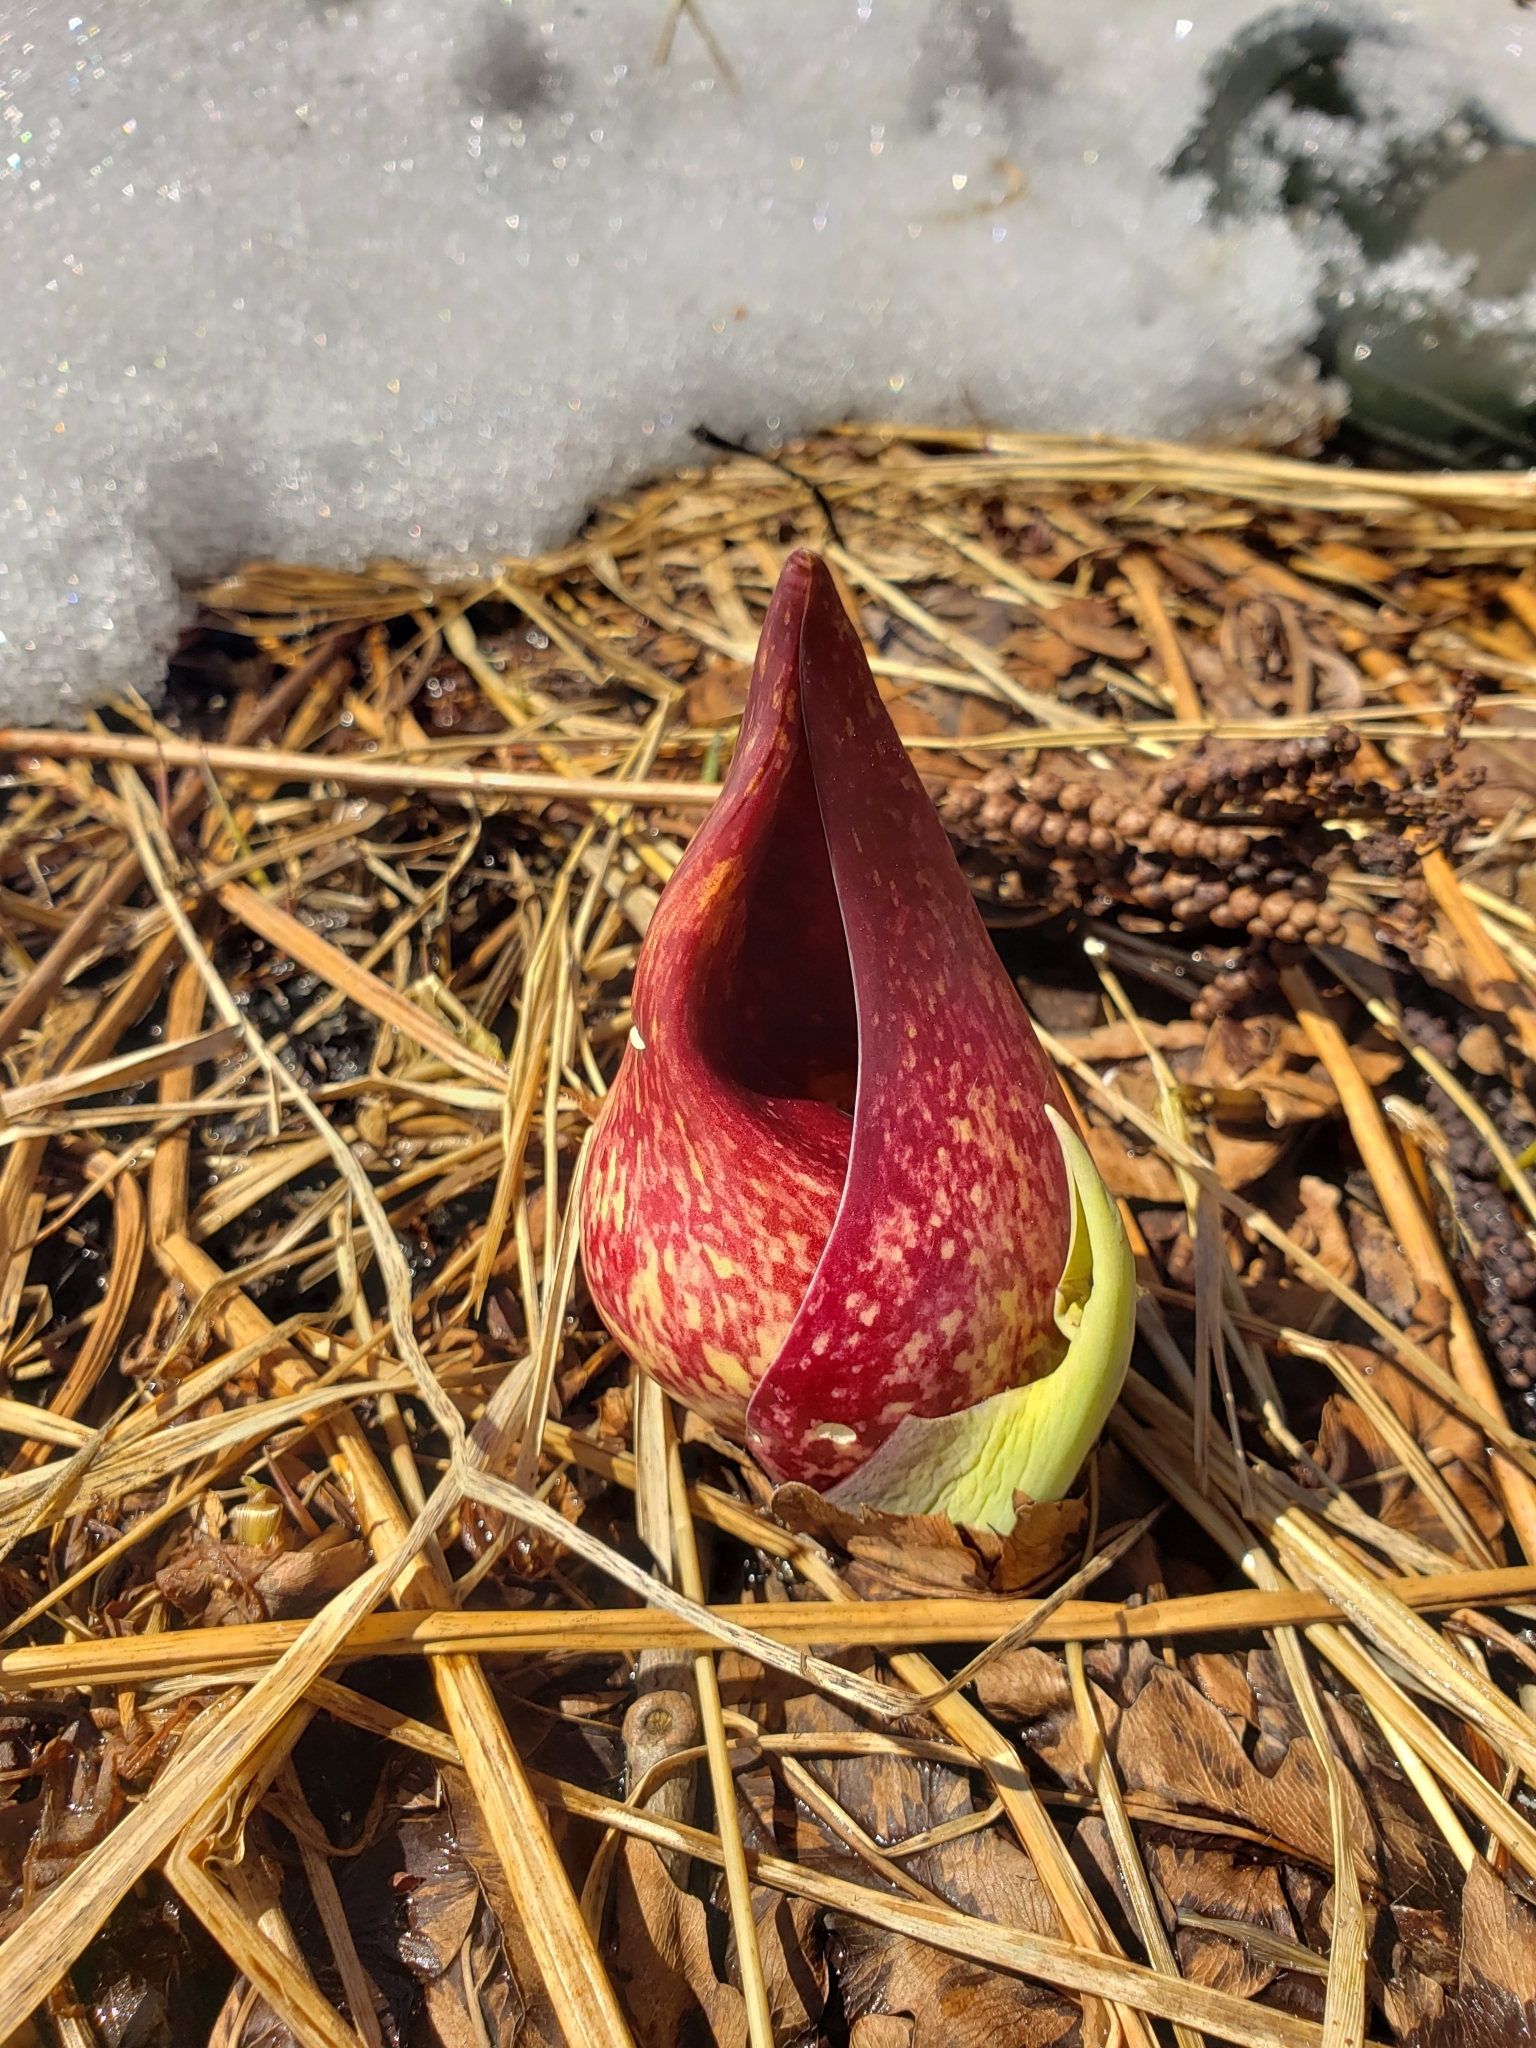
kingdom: Plantae
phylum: Tracheophyta
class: Liliopsida
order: Alismatales
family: Araceae
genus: Symplocarpus
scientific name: Symplocarpus foetidus
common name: Eastern skunk cabbage
